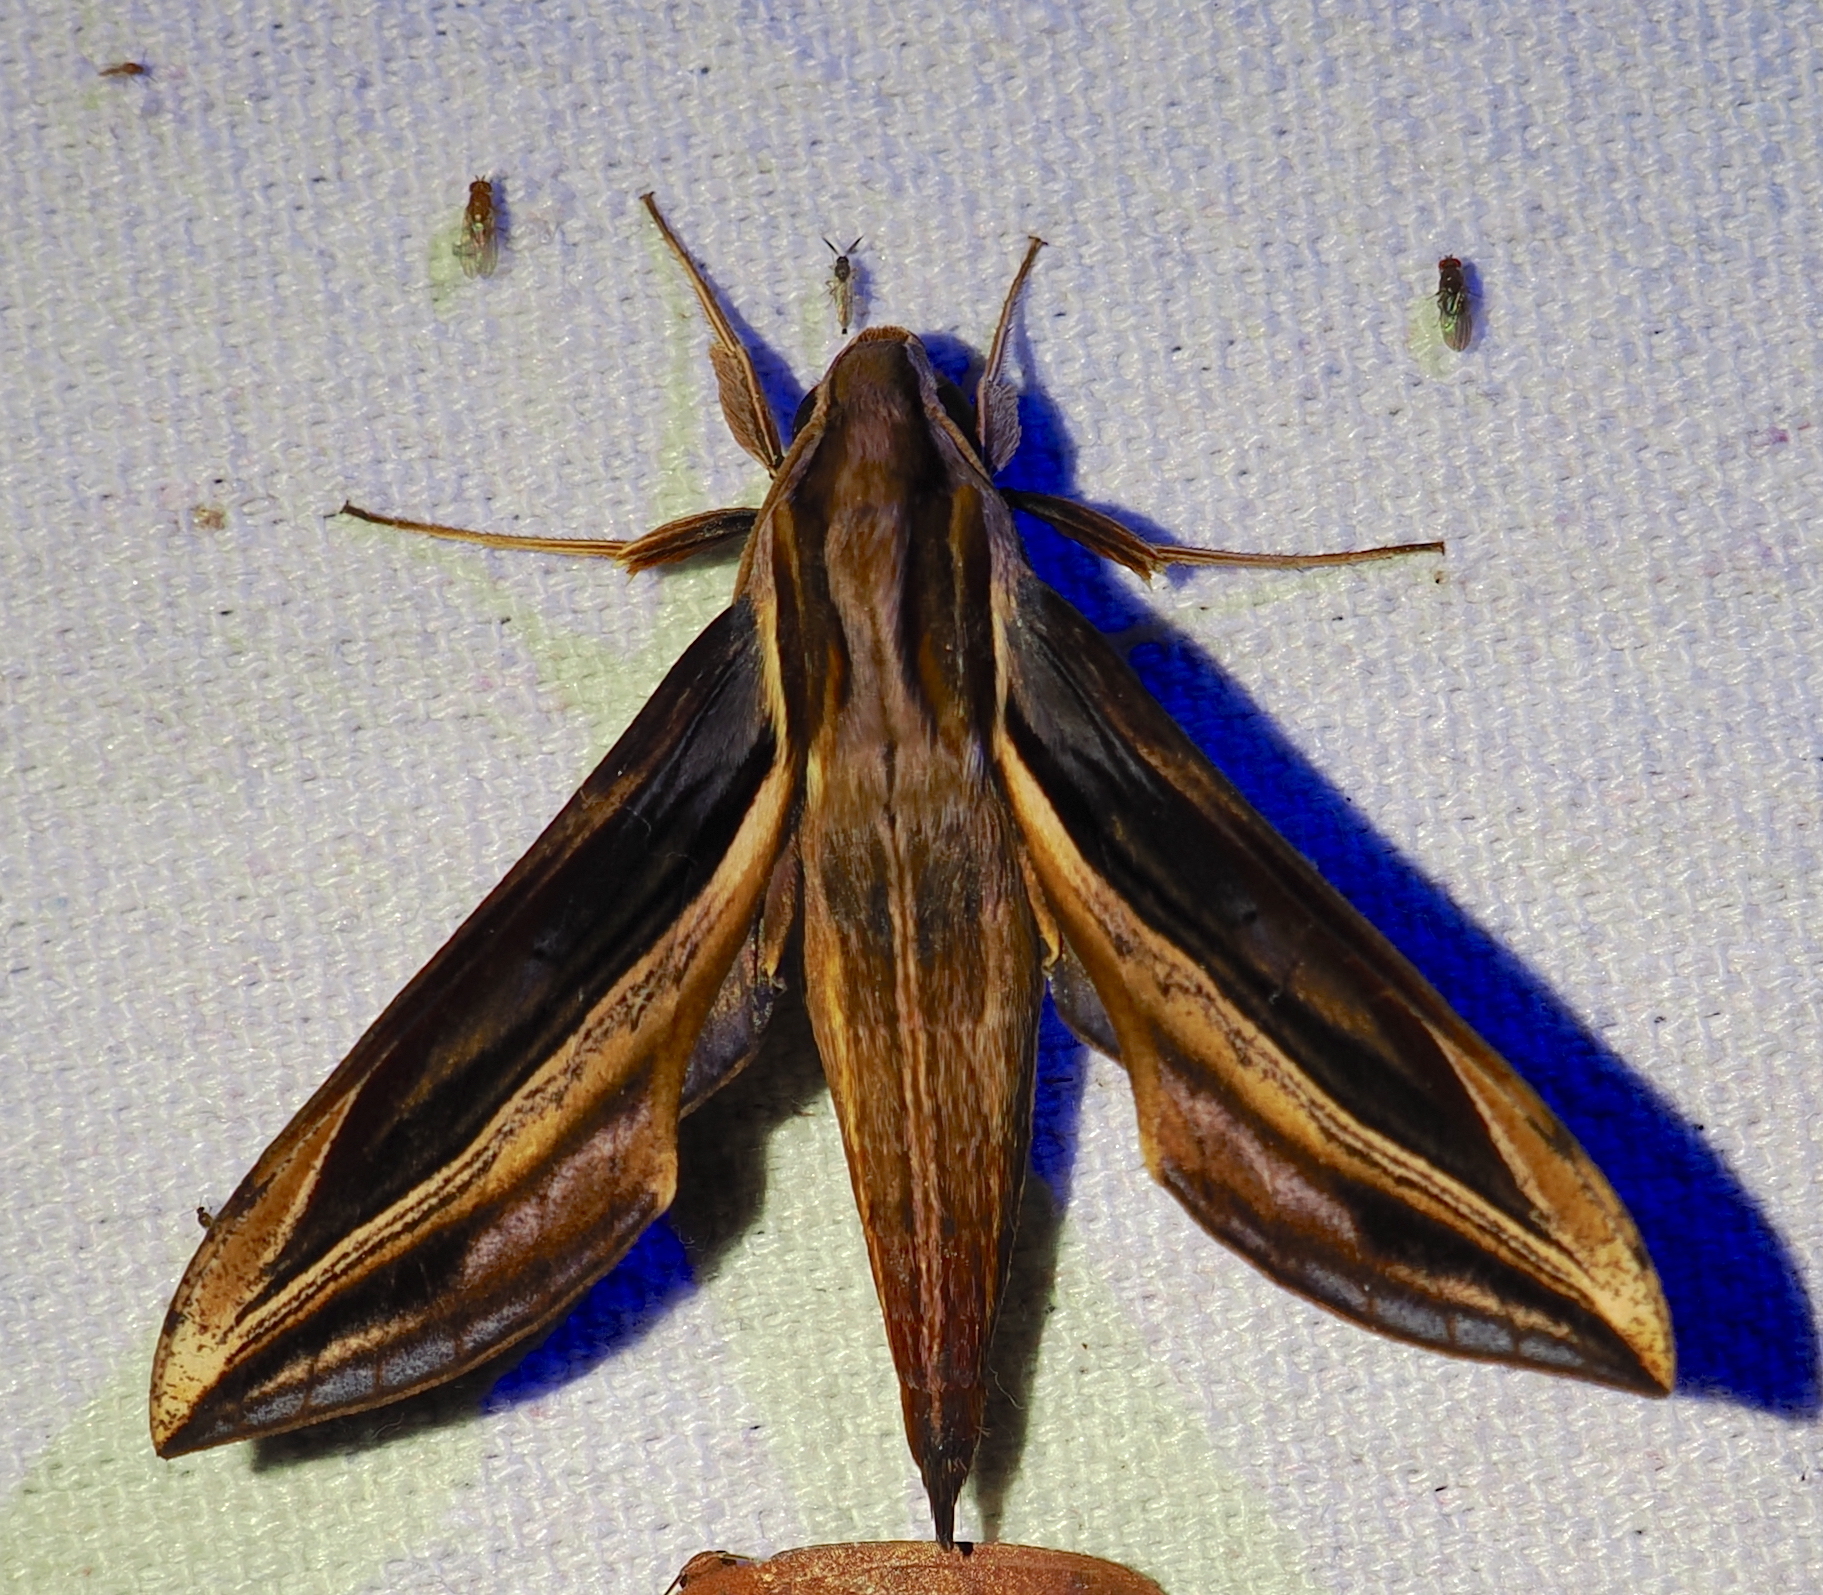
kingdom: Animalia
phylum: Arthropoda
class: Insecta
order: Lepidoptera
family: Sphingidae
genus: Xylophanes
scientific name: Xylophanes pyrrhus
